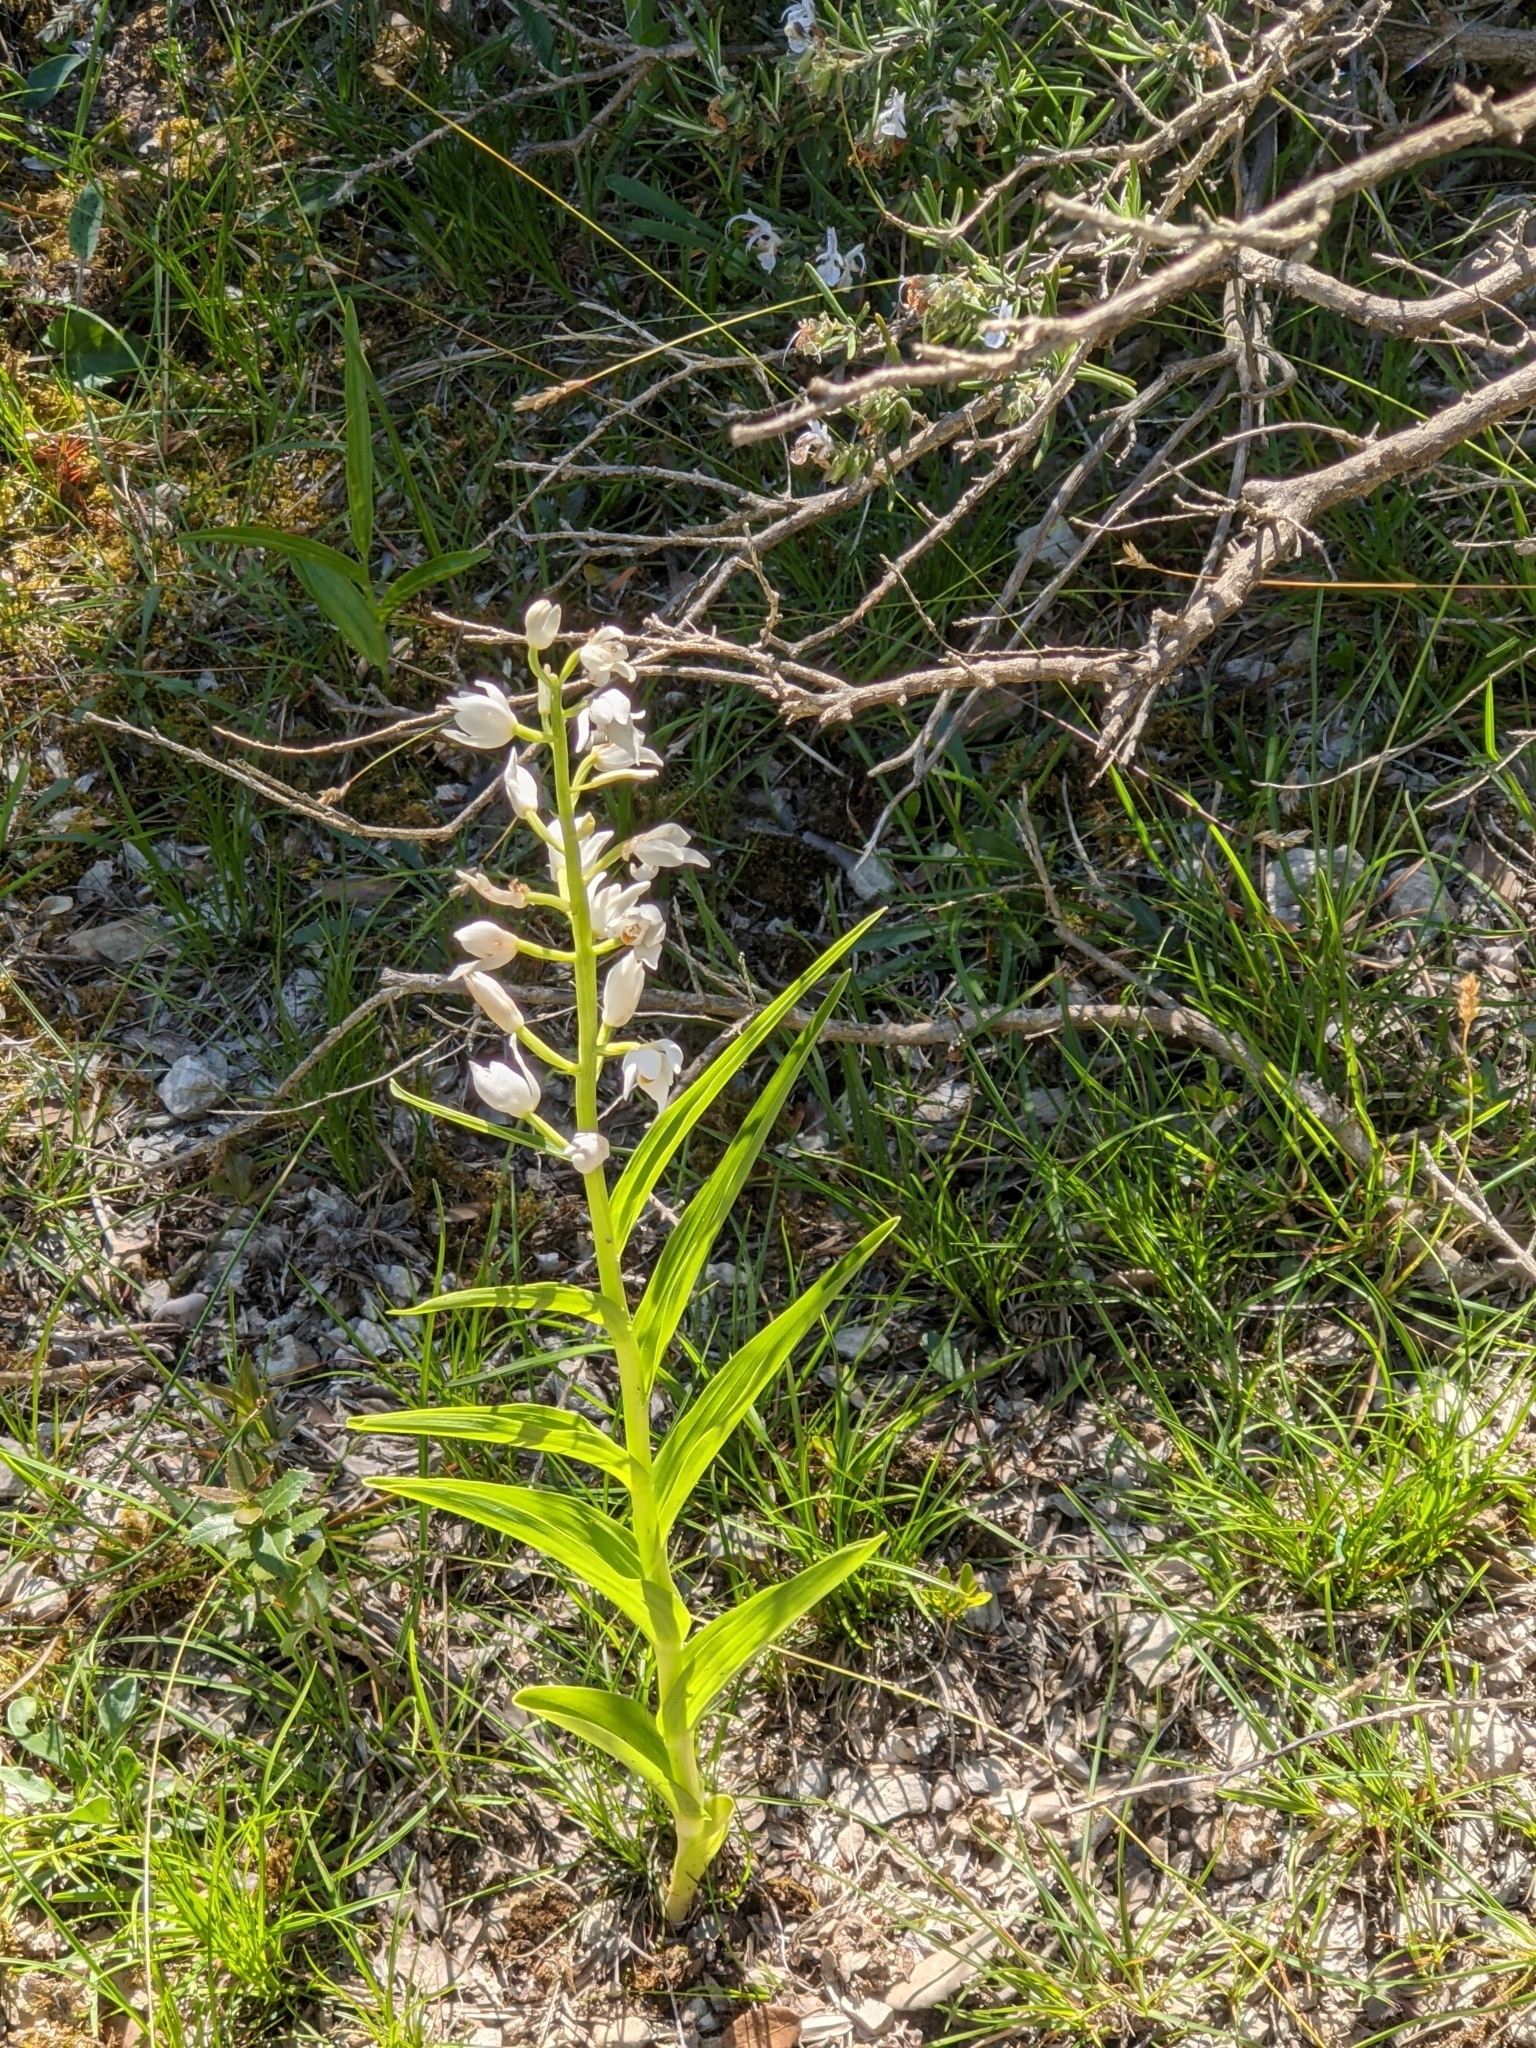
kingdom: Plantae
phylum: Tracheophyta
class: Liliopsida
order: Asparagales
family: Orchidaceae
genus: Cephalanthera
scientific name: Cephalanthera longifolia
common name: Narrow-leaved helleborine
